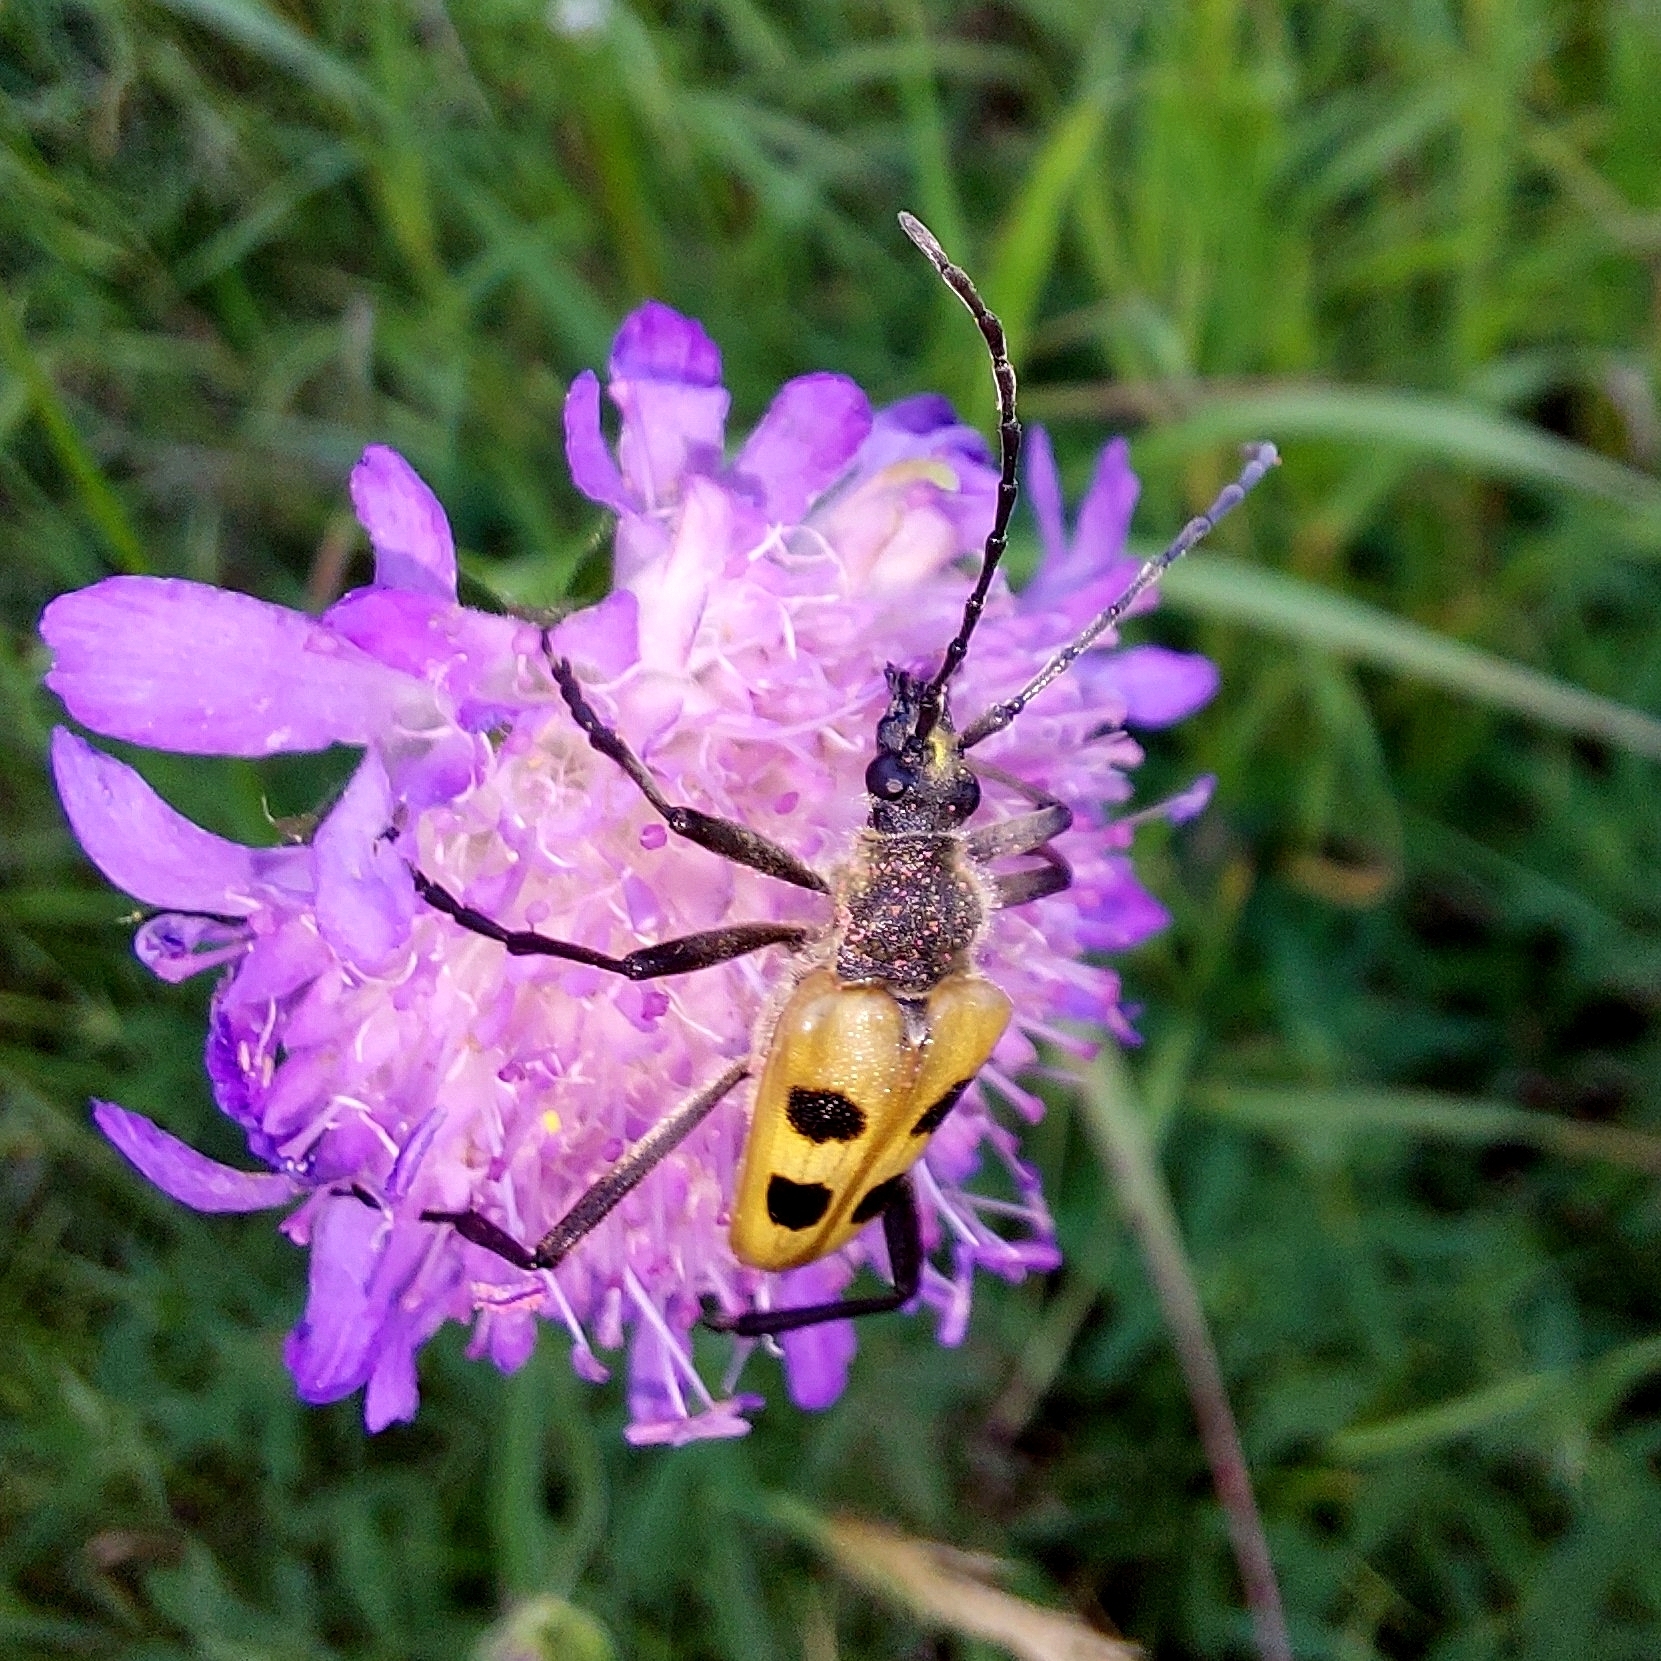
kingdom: Animalia
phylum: Arthropoda
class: Insecta
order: Coleoptera
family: Cerambycidae
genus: Pachyta
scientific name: Pachyta quadrimaculata
